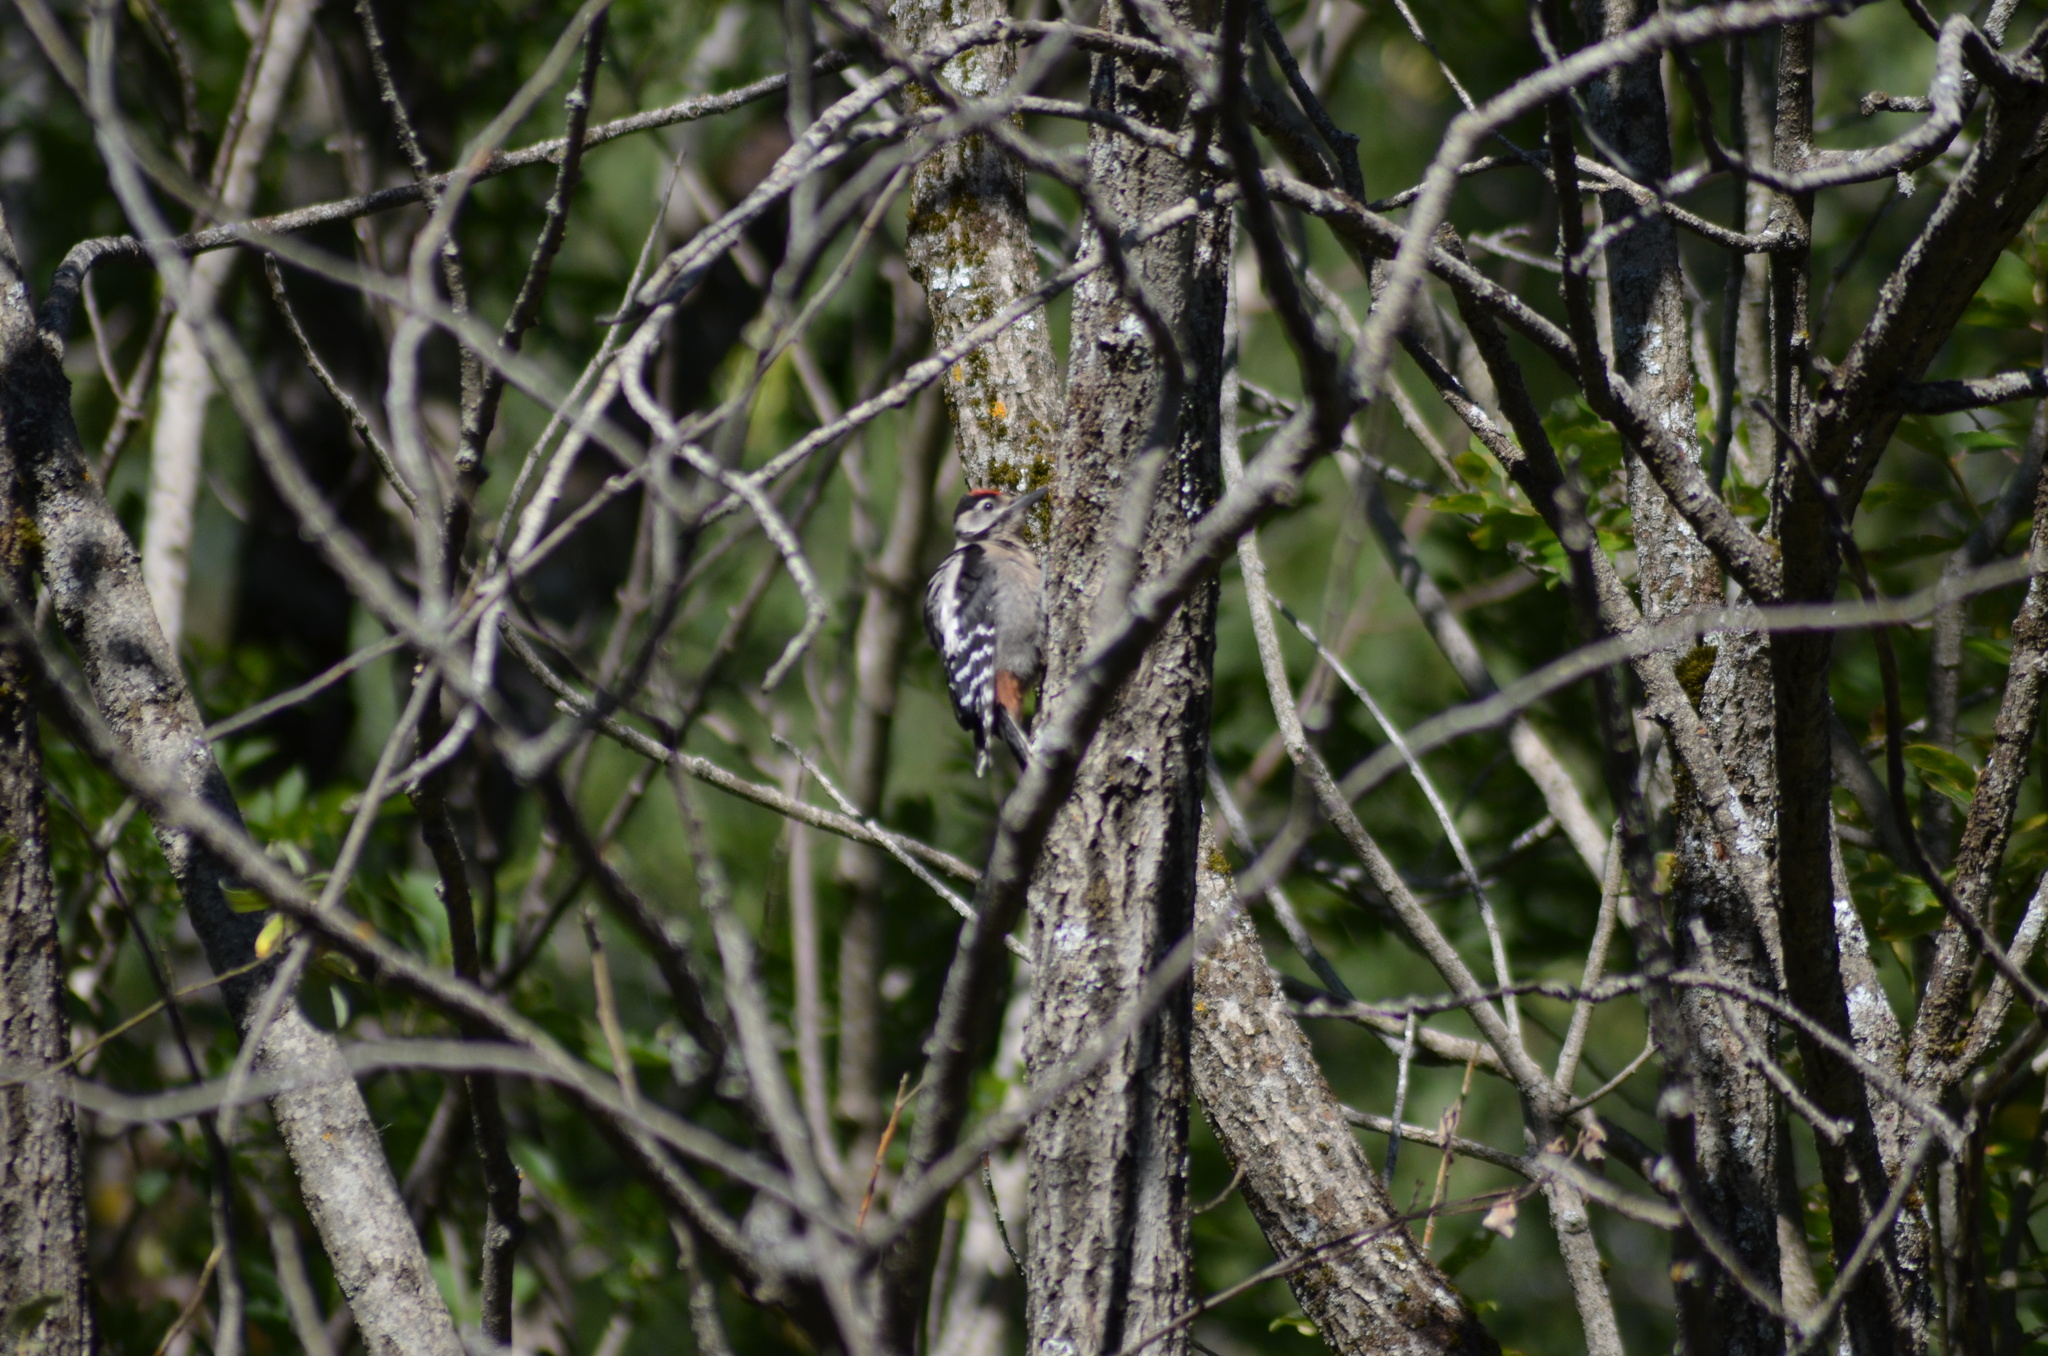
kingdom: Animalia
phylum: Chordata
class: Aves
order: Piciformes
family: Picidae
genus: Dendrocopos
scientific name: Dendrocopos major
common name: Great spotted woodpecker
